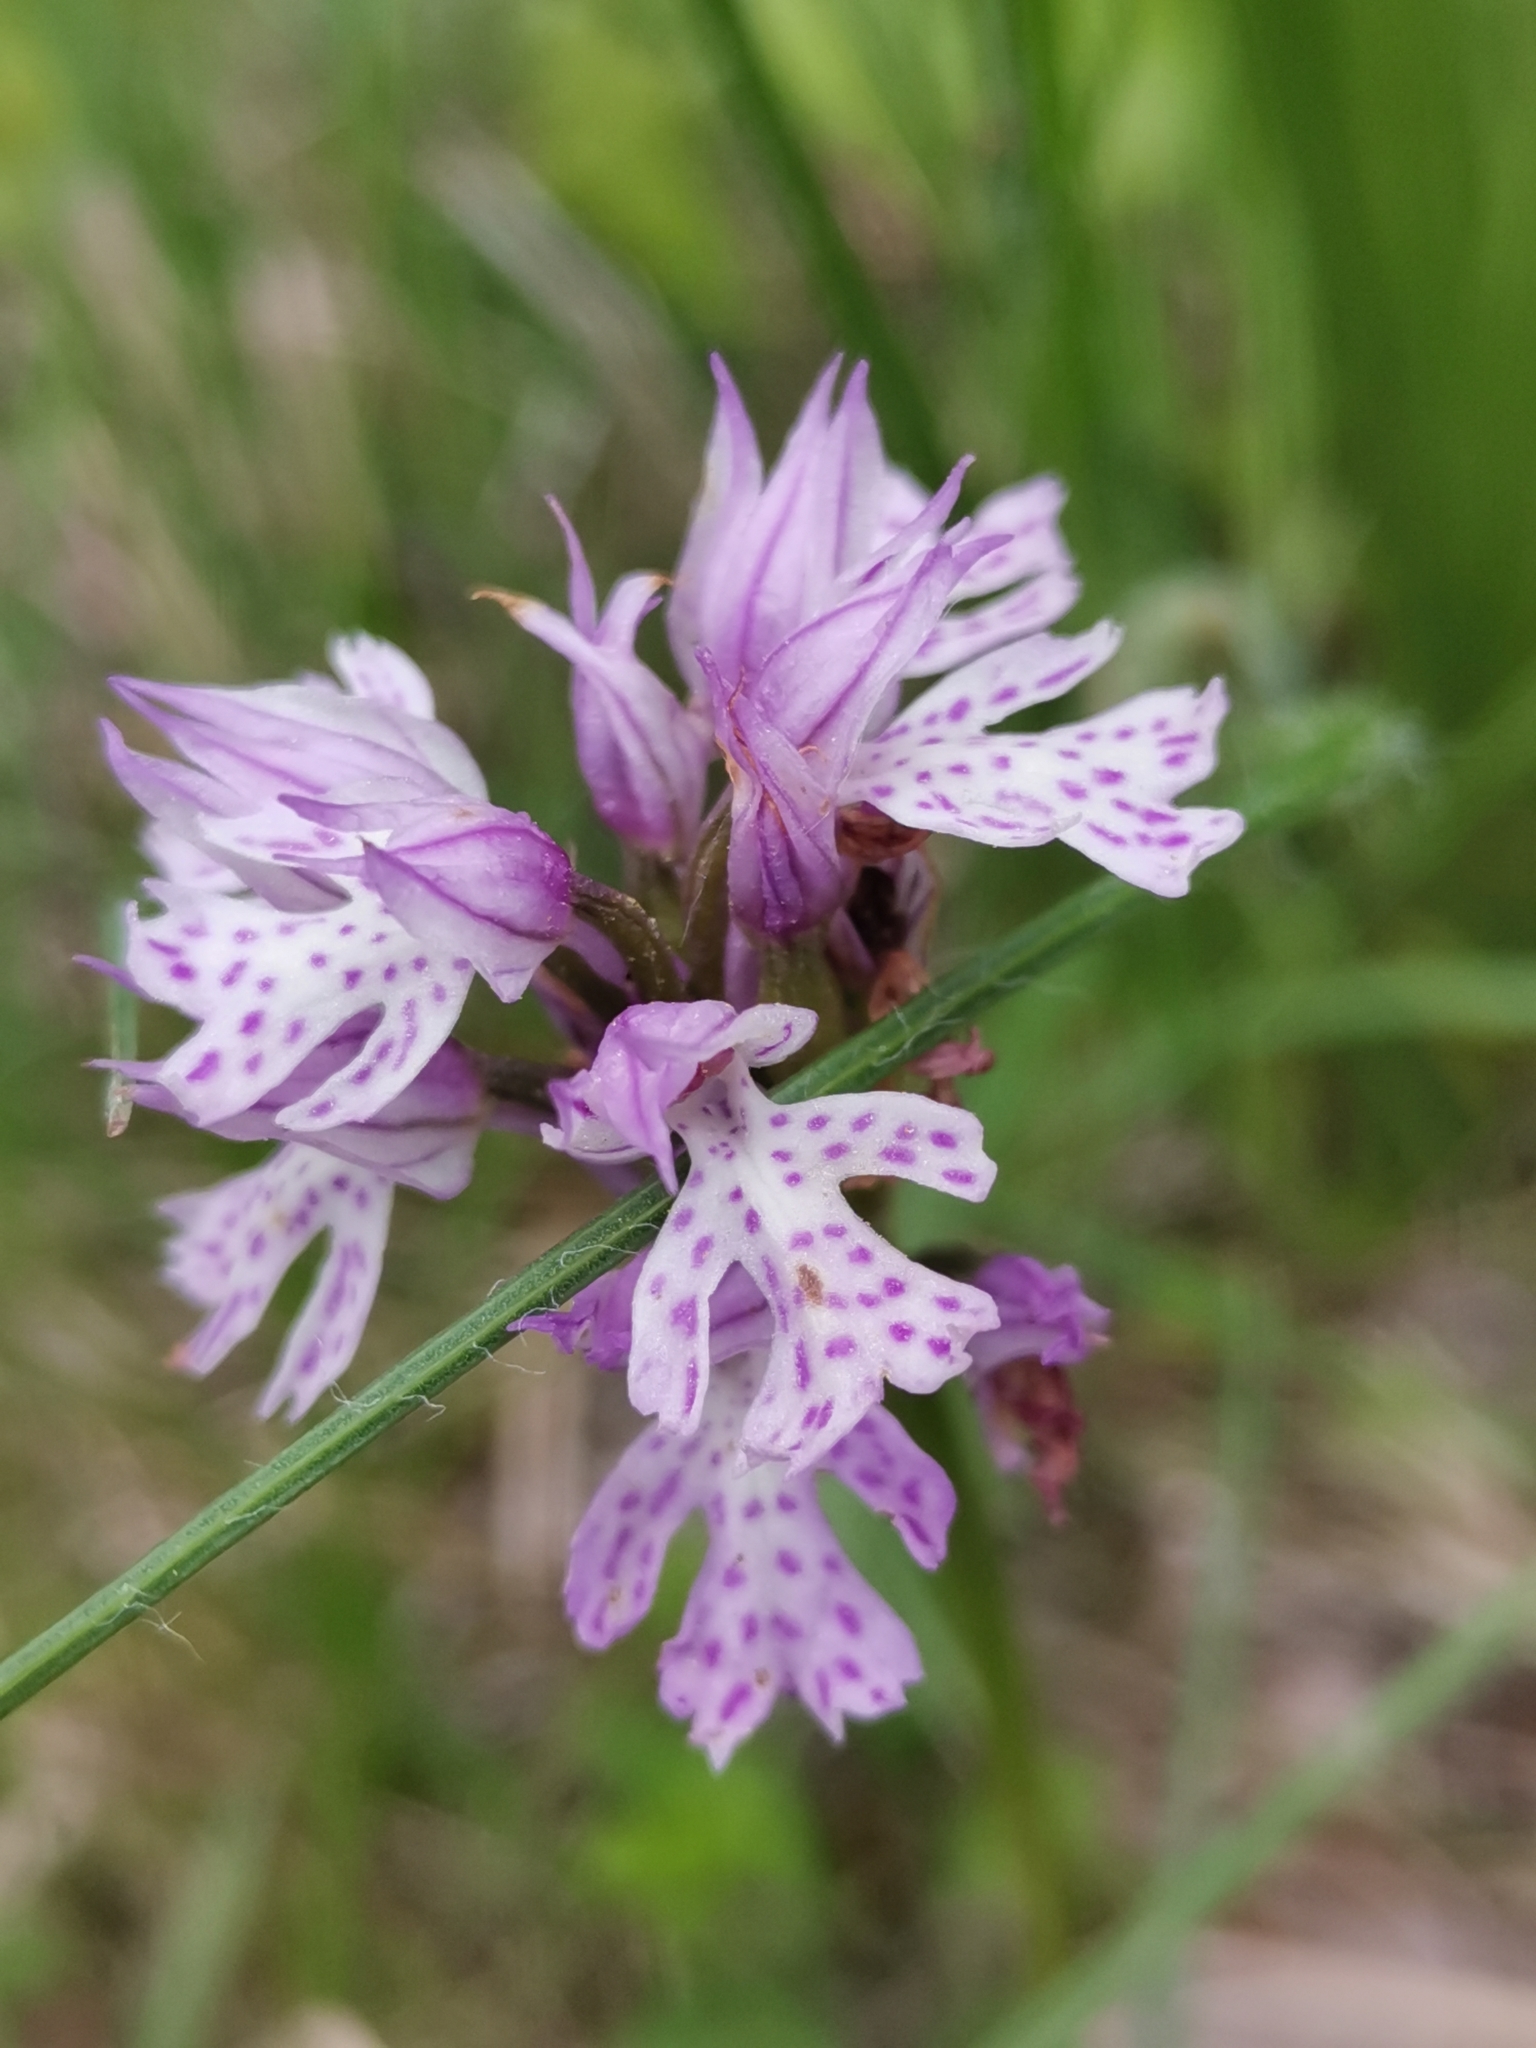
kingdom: Plantae
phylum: Tracheophyta
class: Liliopsida
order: Asparagales
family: Orchidaceae
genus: Neotinea
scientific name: Neotinea tridentata
